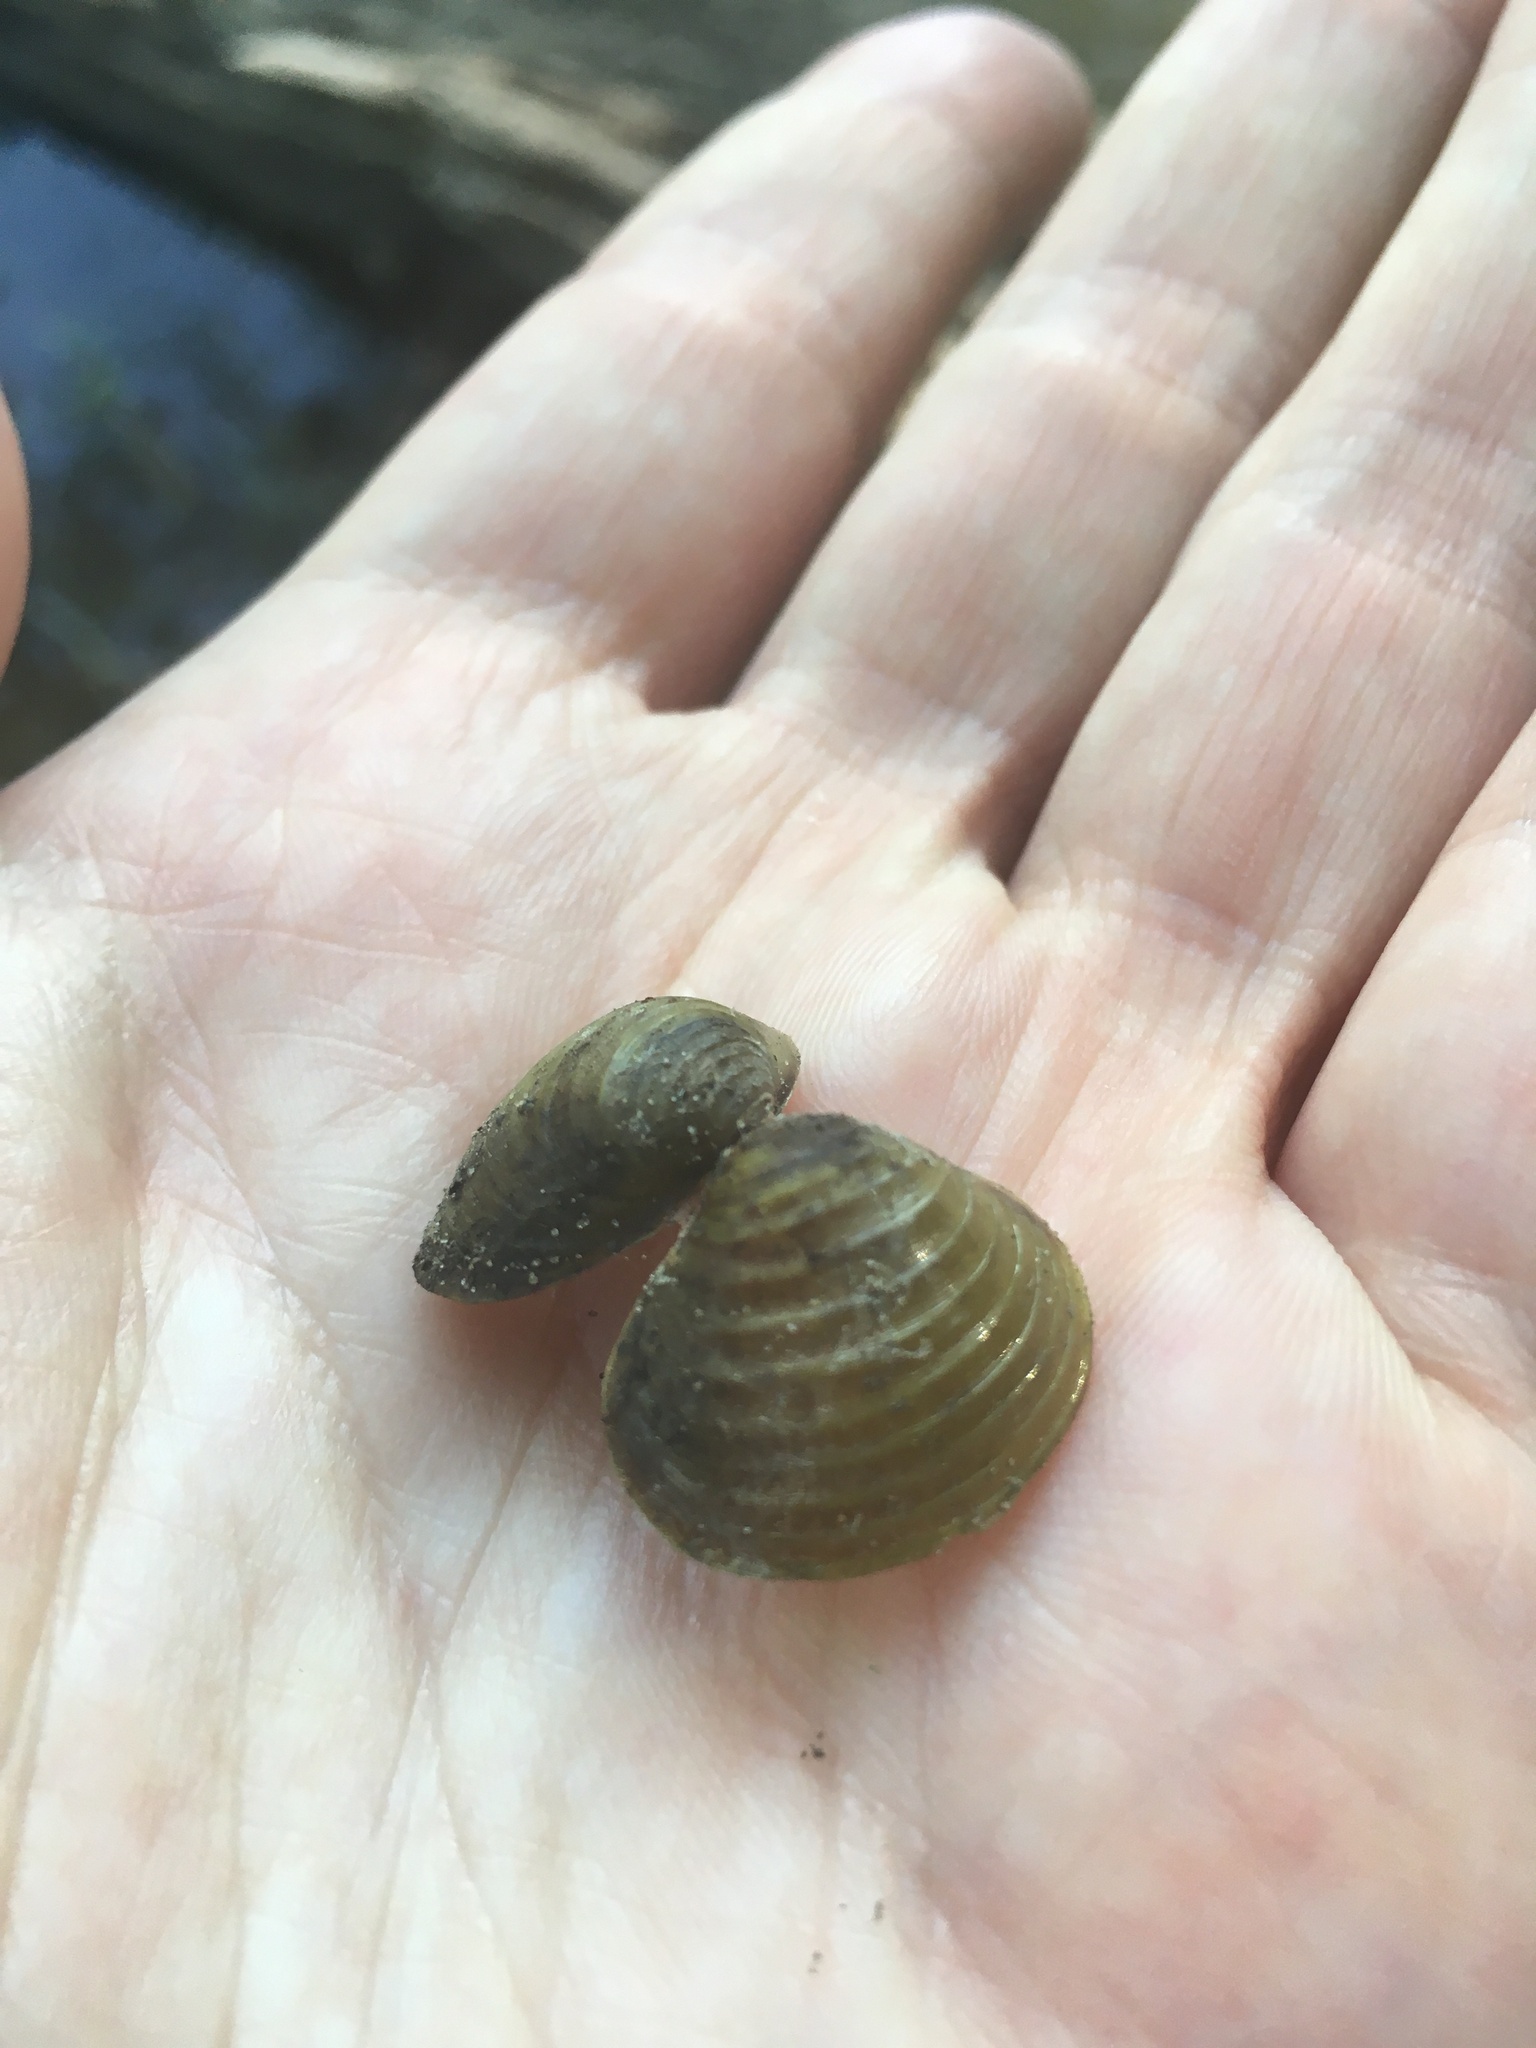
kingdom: Animalia
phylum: Mollusca
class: Bivalvia
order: Venerida
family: Cyrenidae
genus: Corbicula
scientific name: Corbicula fluminea
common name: Asian clam
